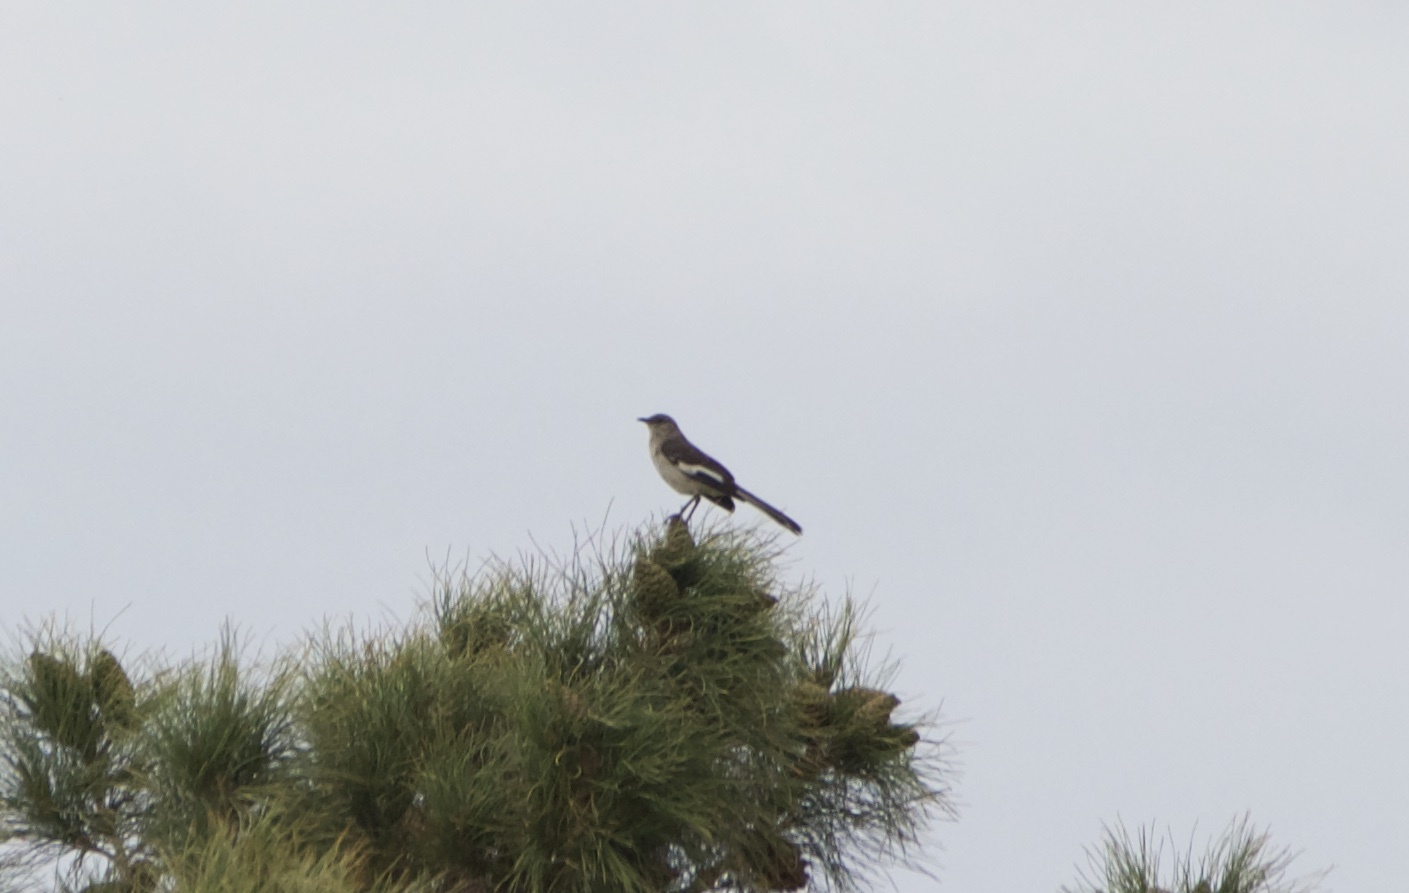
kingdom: Animalia
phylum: Chordata
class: Aves
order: Passeriformes
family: Mimidae
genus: Mimus
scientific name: Mimus polyglottos
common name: Northern mockingbird
